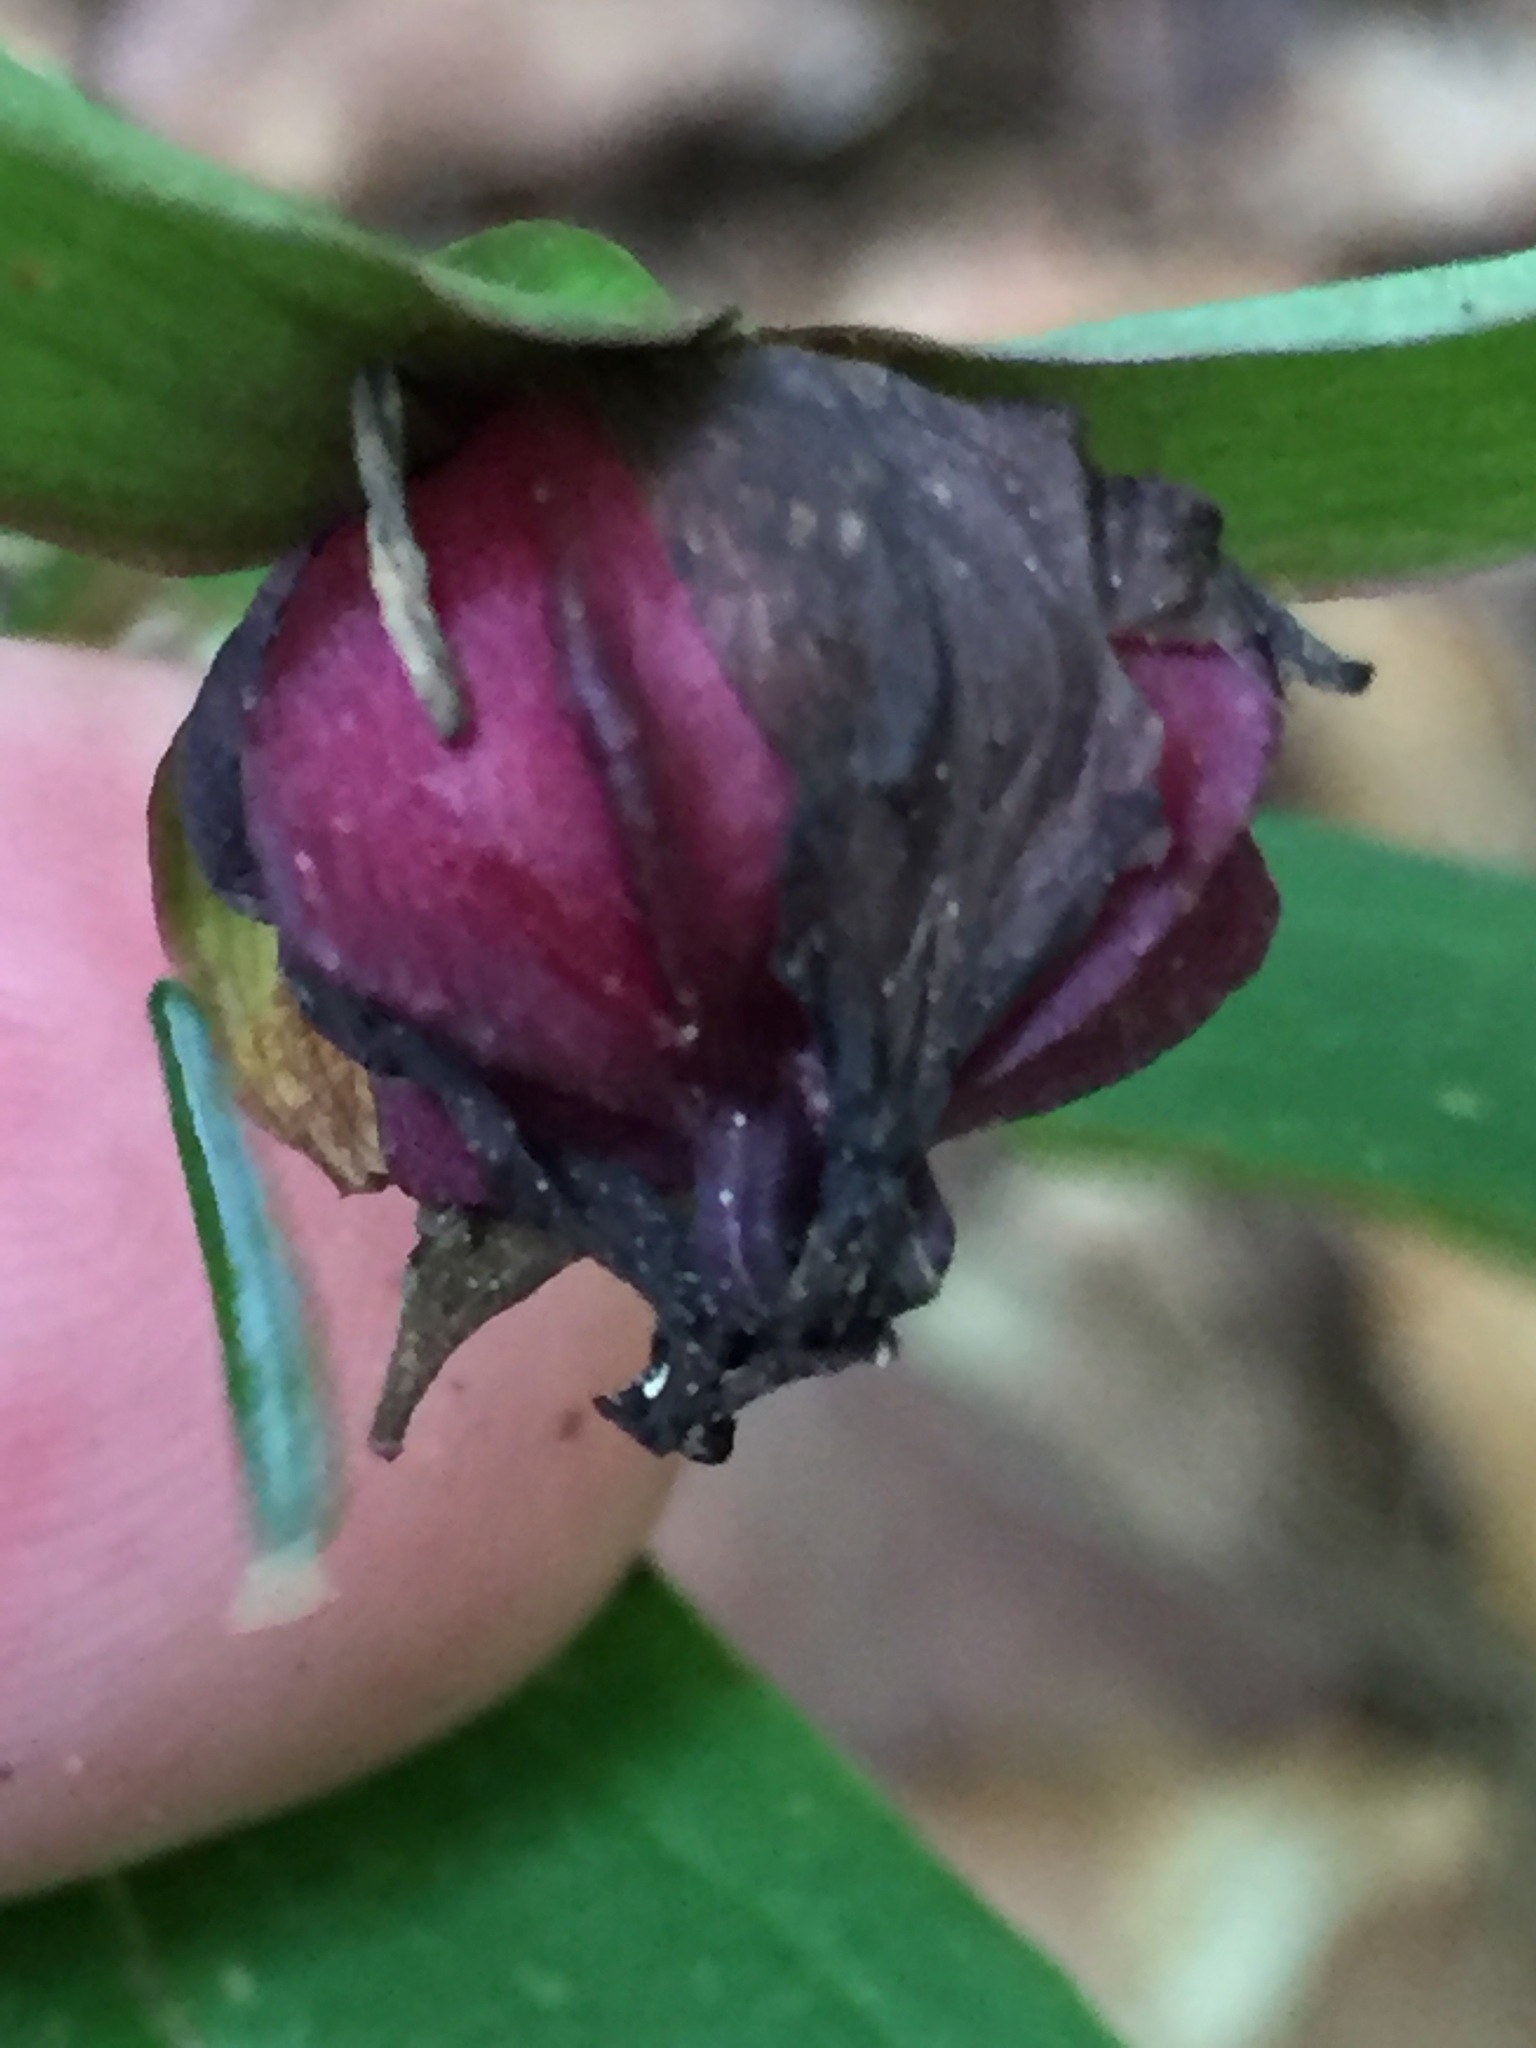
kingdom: Plantae
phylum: Tracheophyta
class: Liliopsida
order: Liliales
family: Melanthiaceae
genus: Trillium
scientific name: Trillium erectum
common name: Purple trillium
